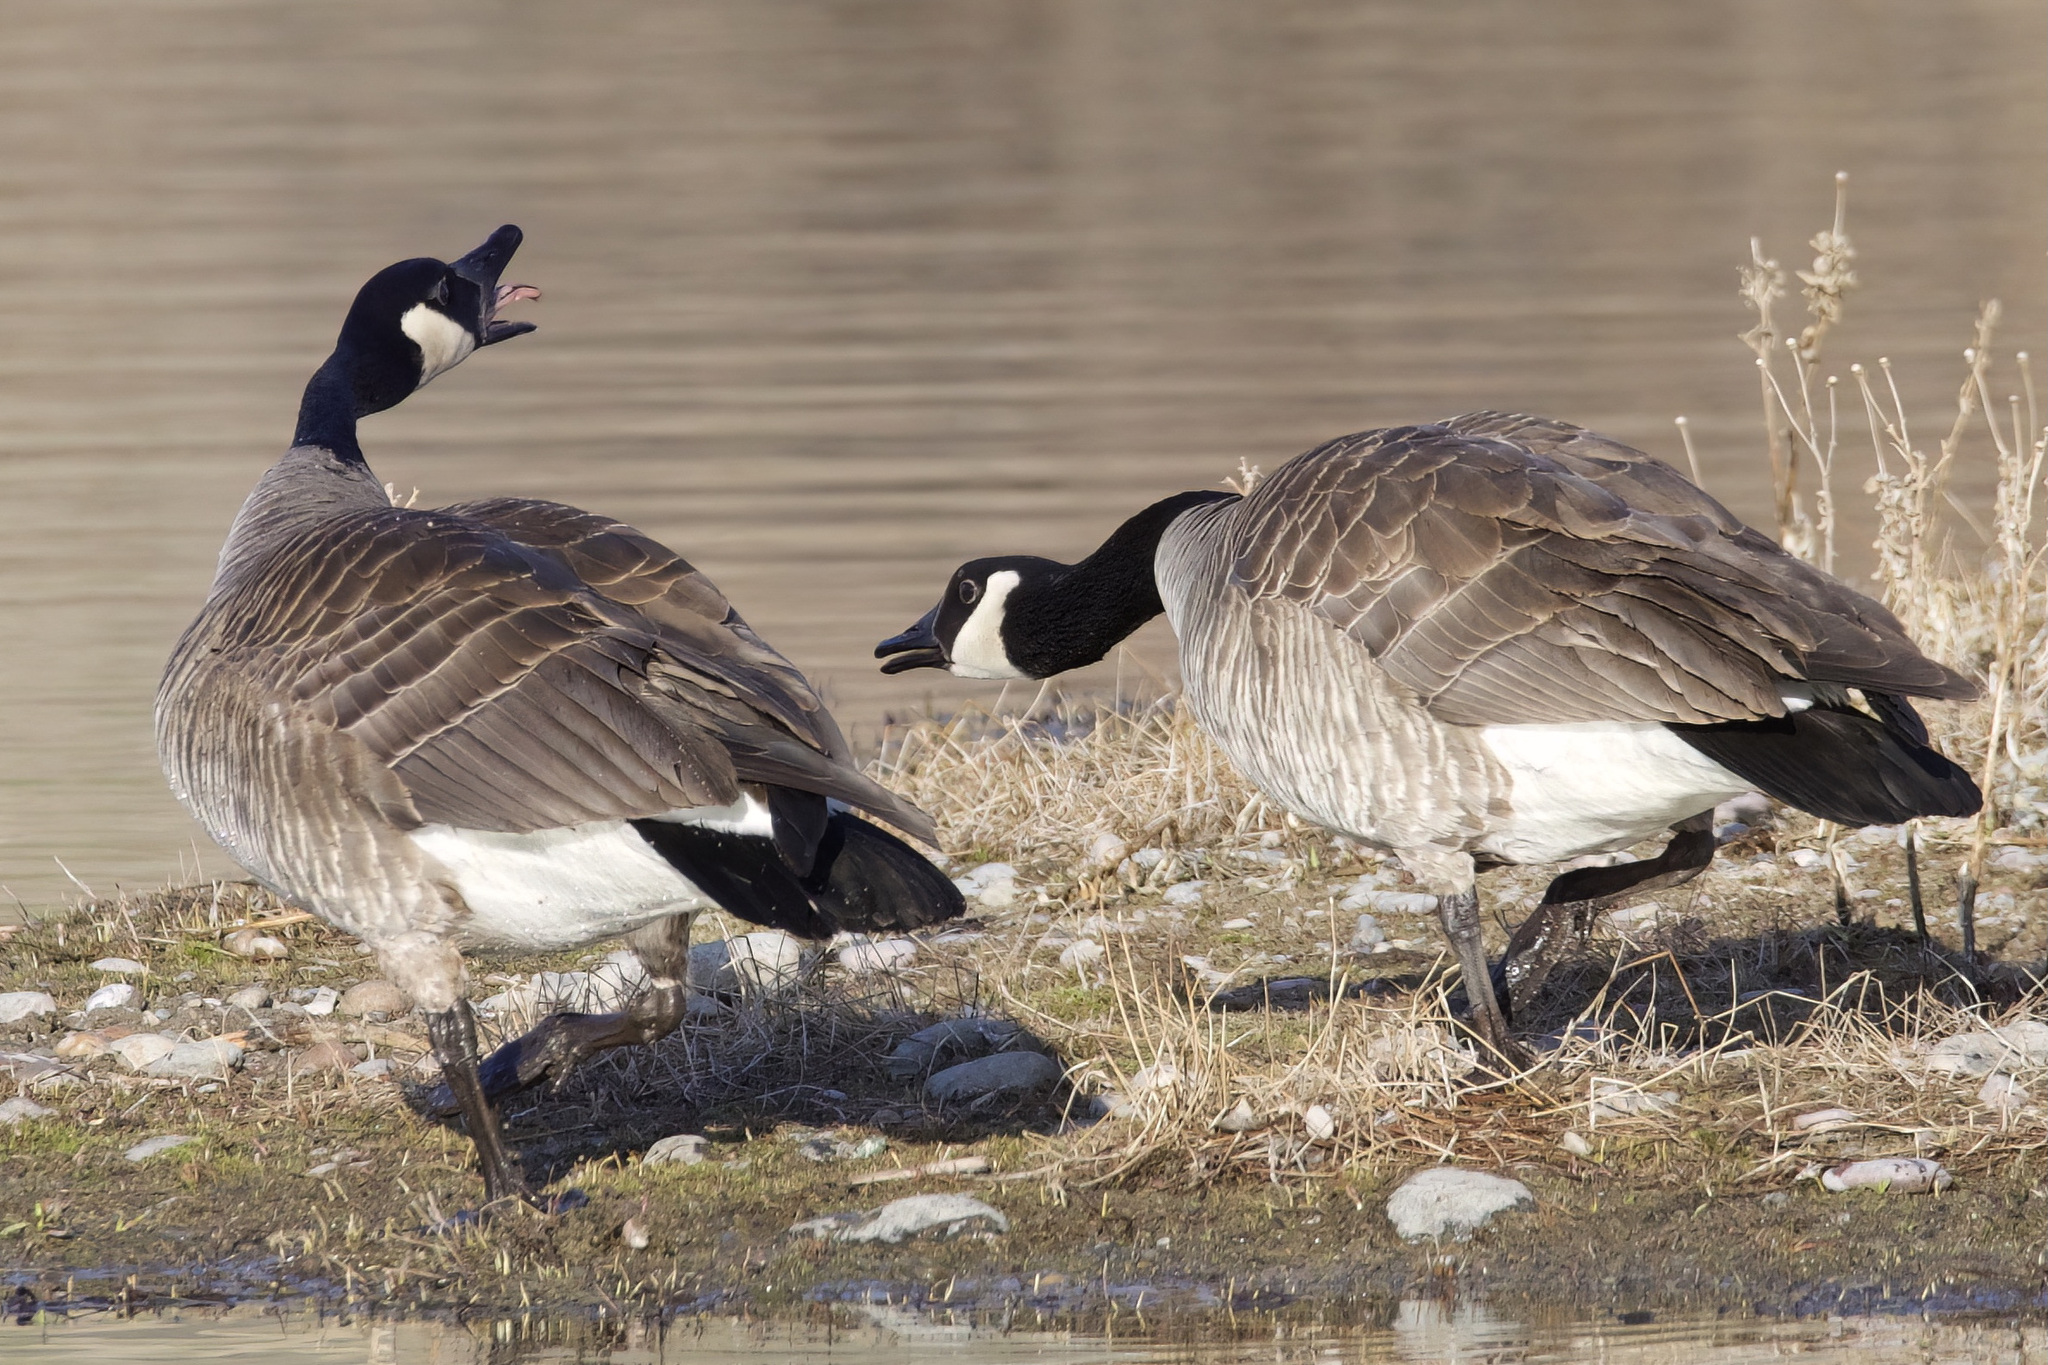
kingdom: Animalia
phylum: Chordata
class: Aves
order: Anseriformes
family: Anatidae
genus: Branta
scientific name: Branta canadensis
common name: Canada goose
